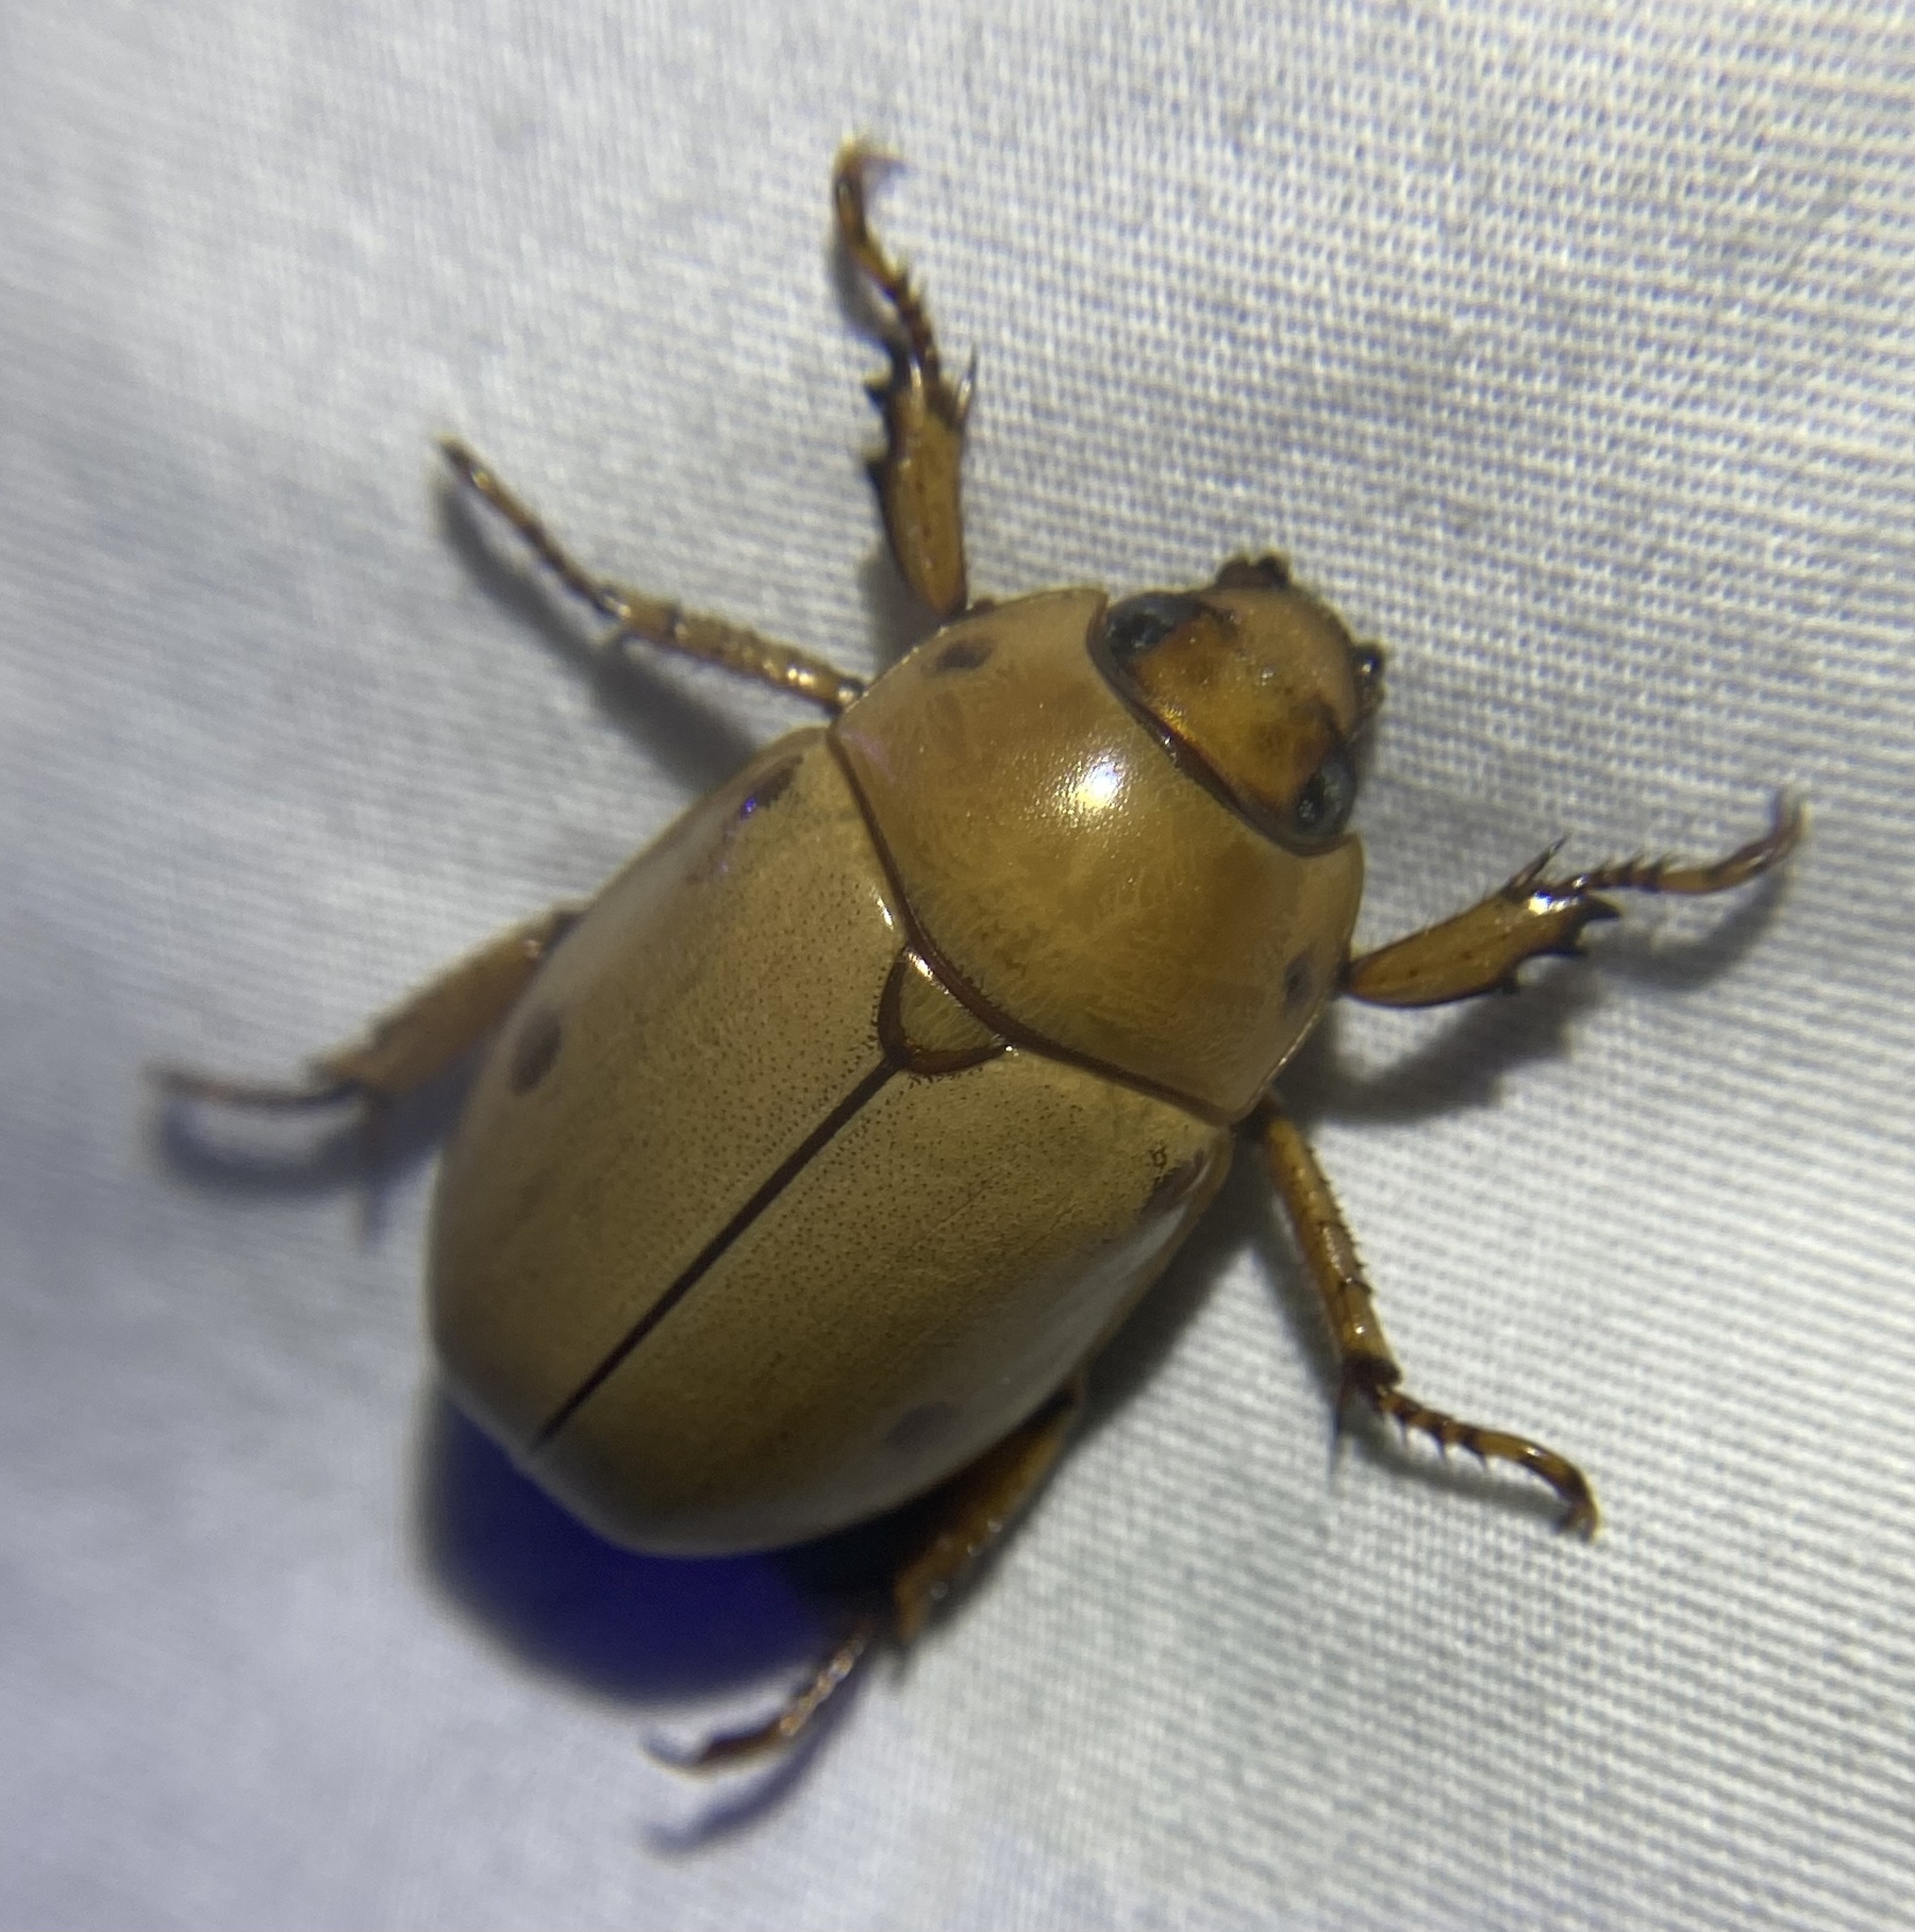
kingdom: Animalia
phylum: Arthropoda
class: Insecta
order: Coleoptera
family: Scarabaeidae
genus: Pelidnota
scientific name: Pelidnota punctata
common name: Grapevine beetle
